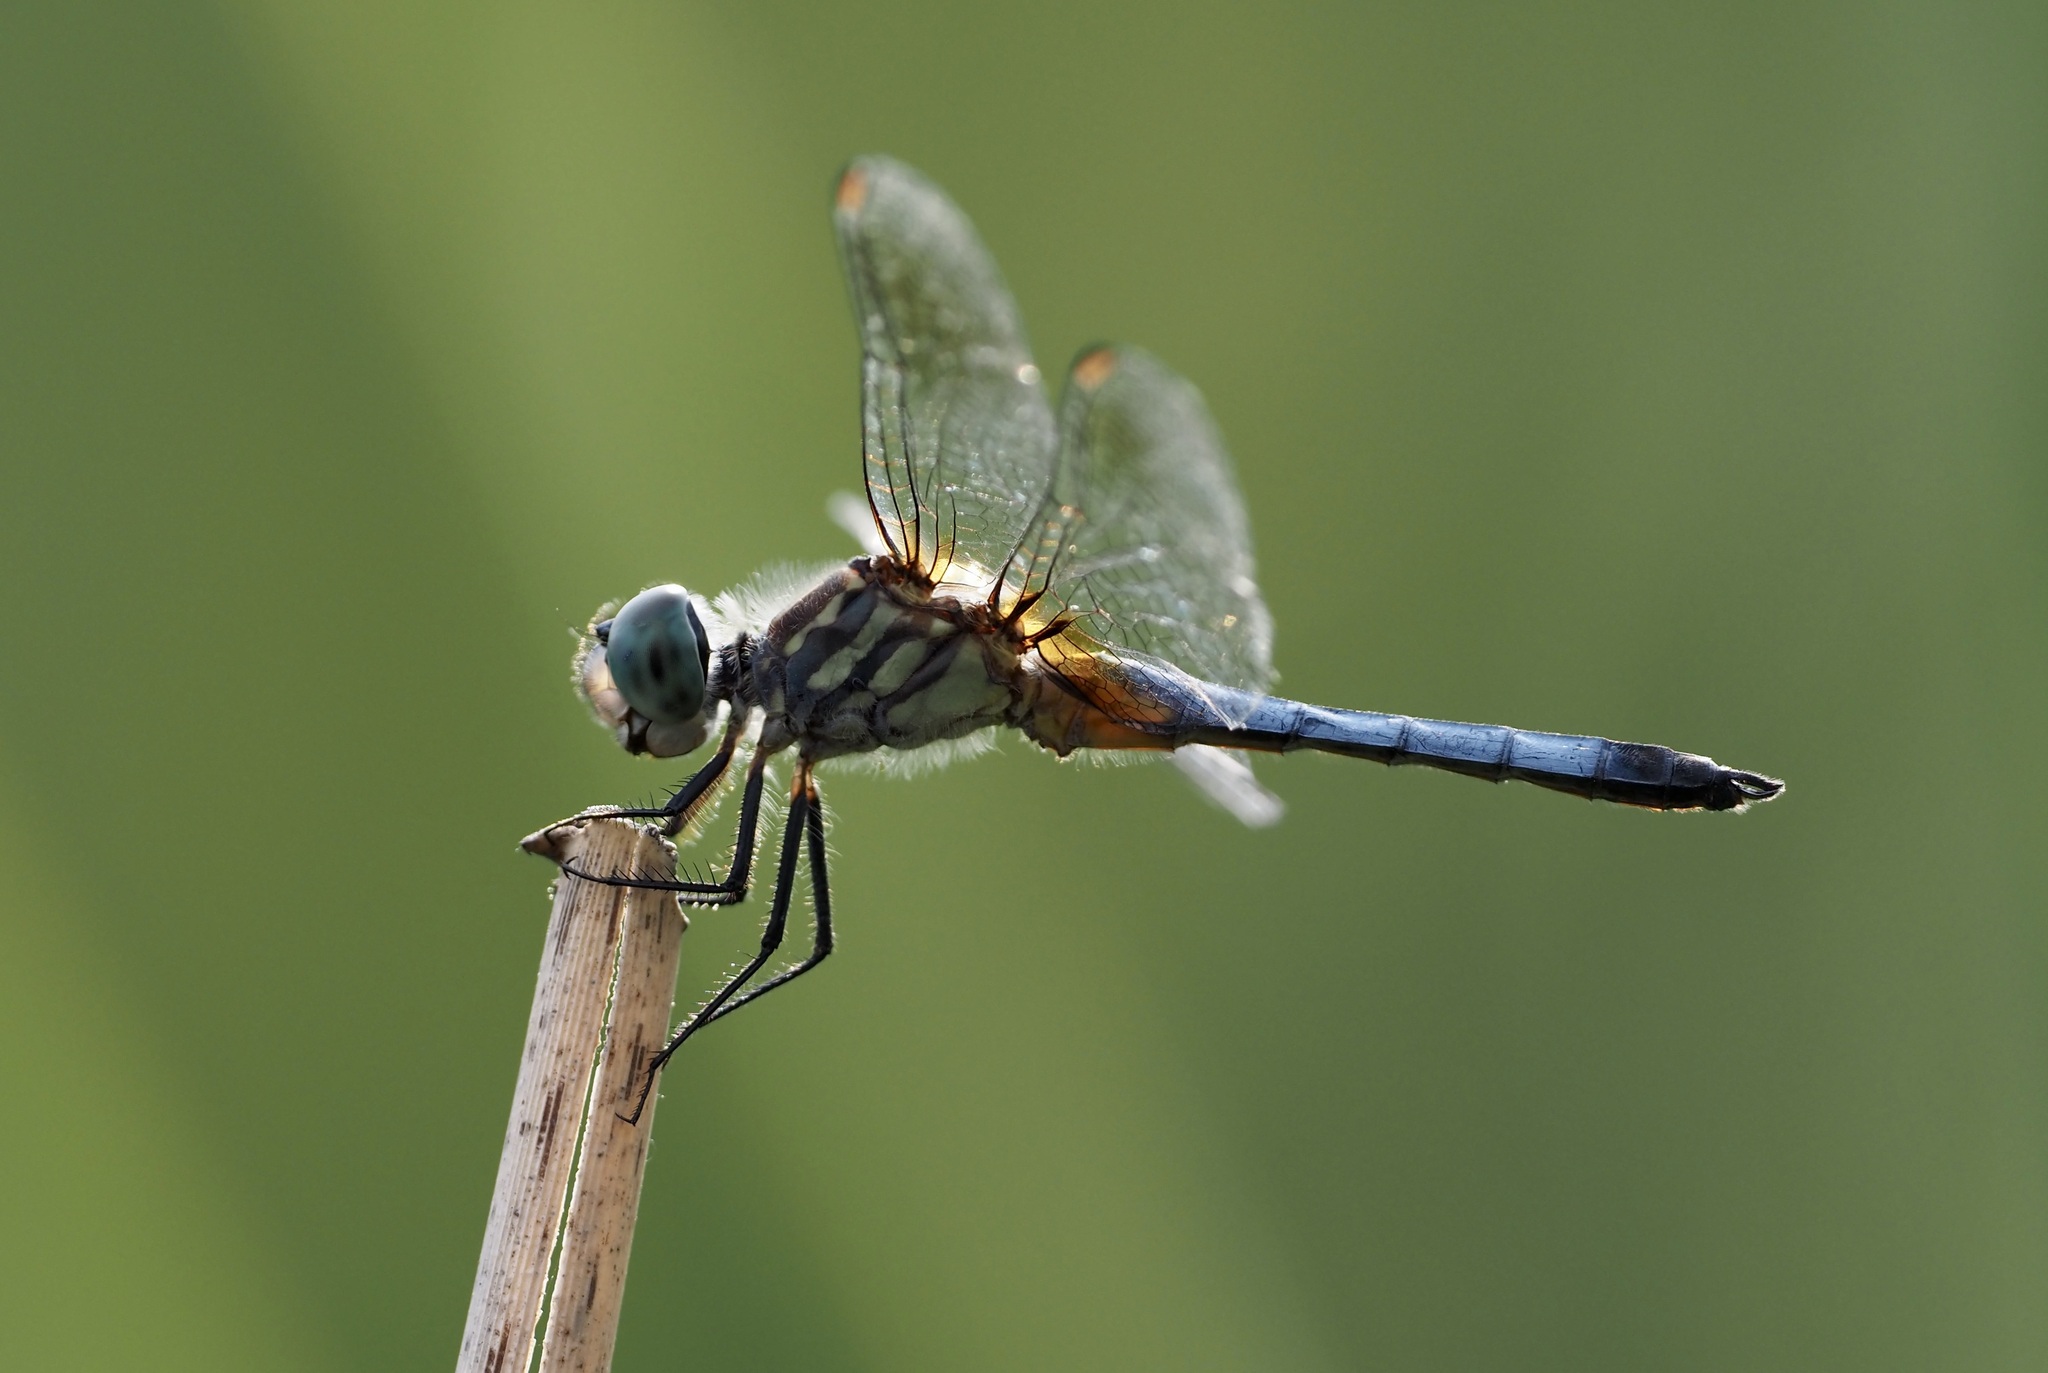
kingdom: Animalia
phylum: Arthropoda
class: Insecta
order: Odonata
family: Libellulidae
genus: Pachydiplax
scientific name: Pachydiplax longipennis
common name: Blue dasher
